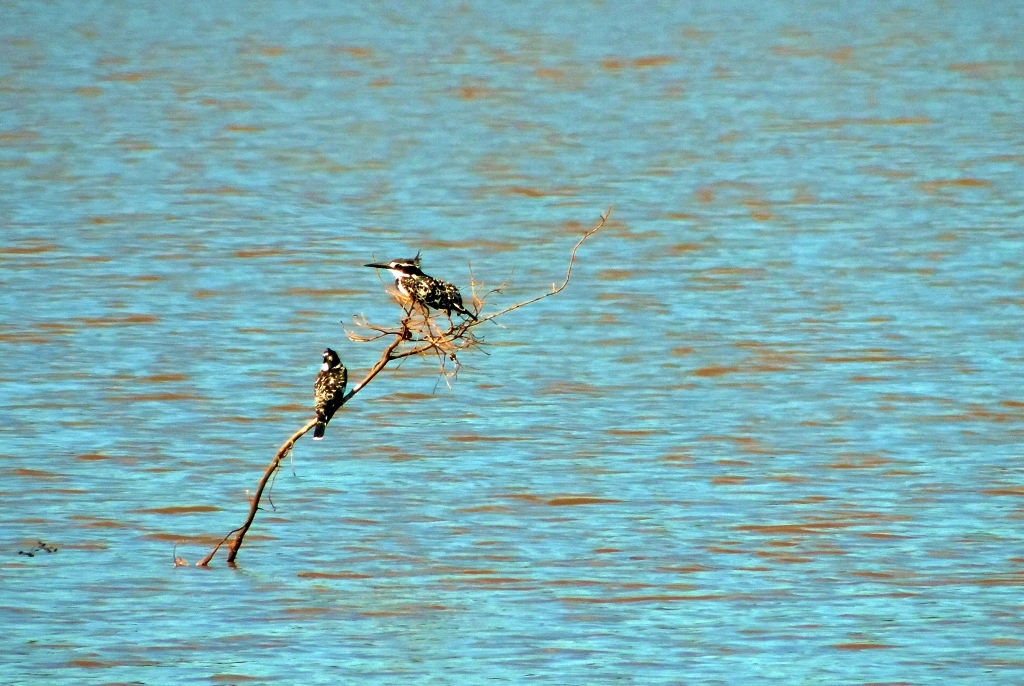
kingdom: Animalia
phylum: Chordata
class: Aves
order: Coraciiformes
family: Alcedinidae
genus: Ceryle
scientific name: Ceryle rudis
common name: Pied kingfisher
